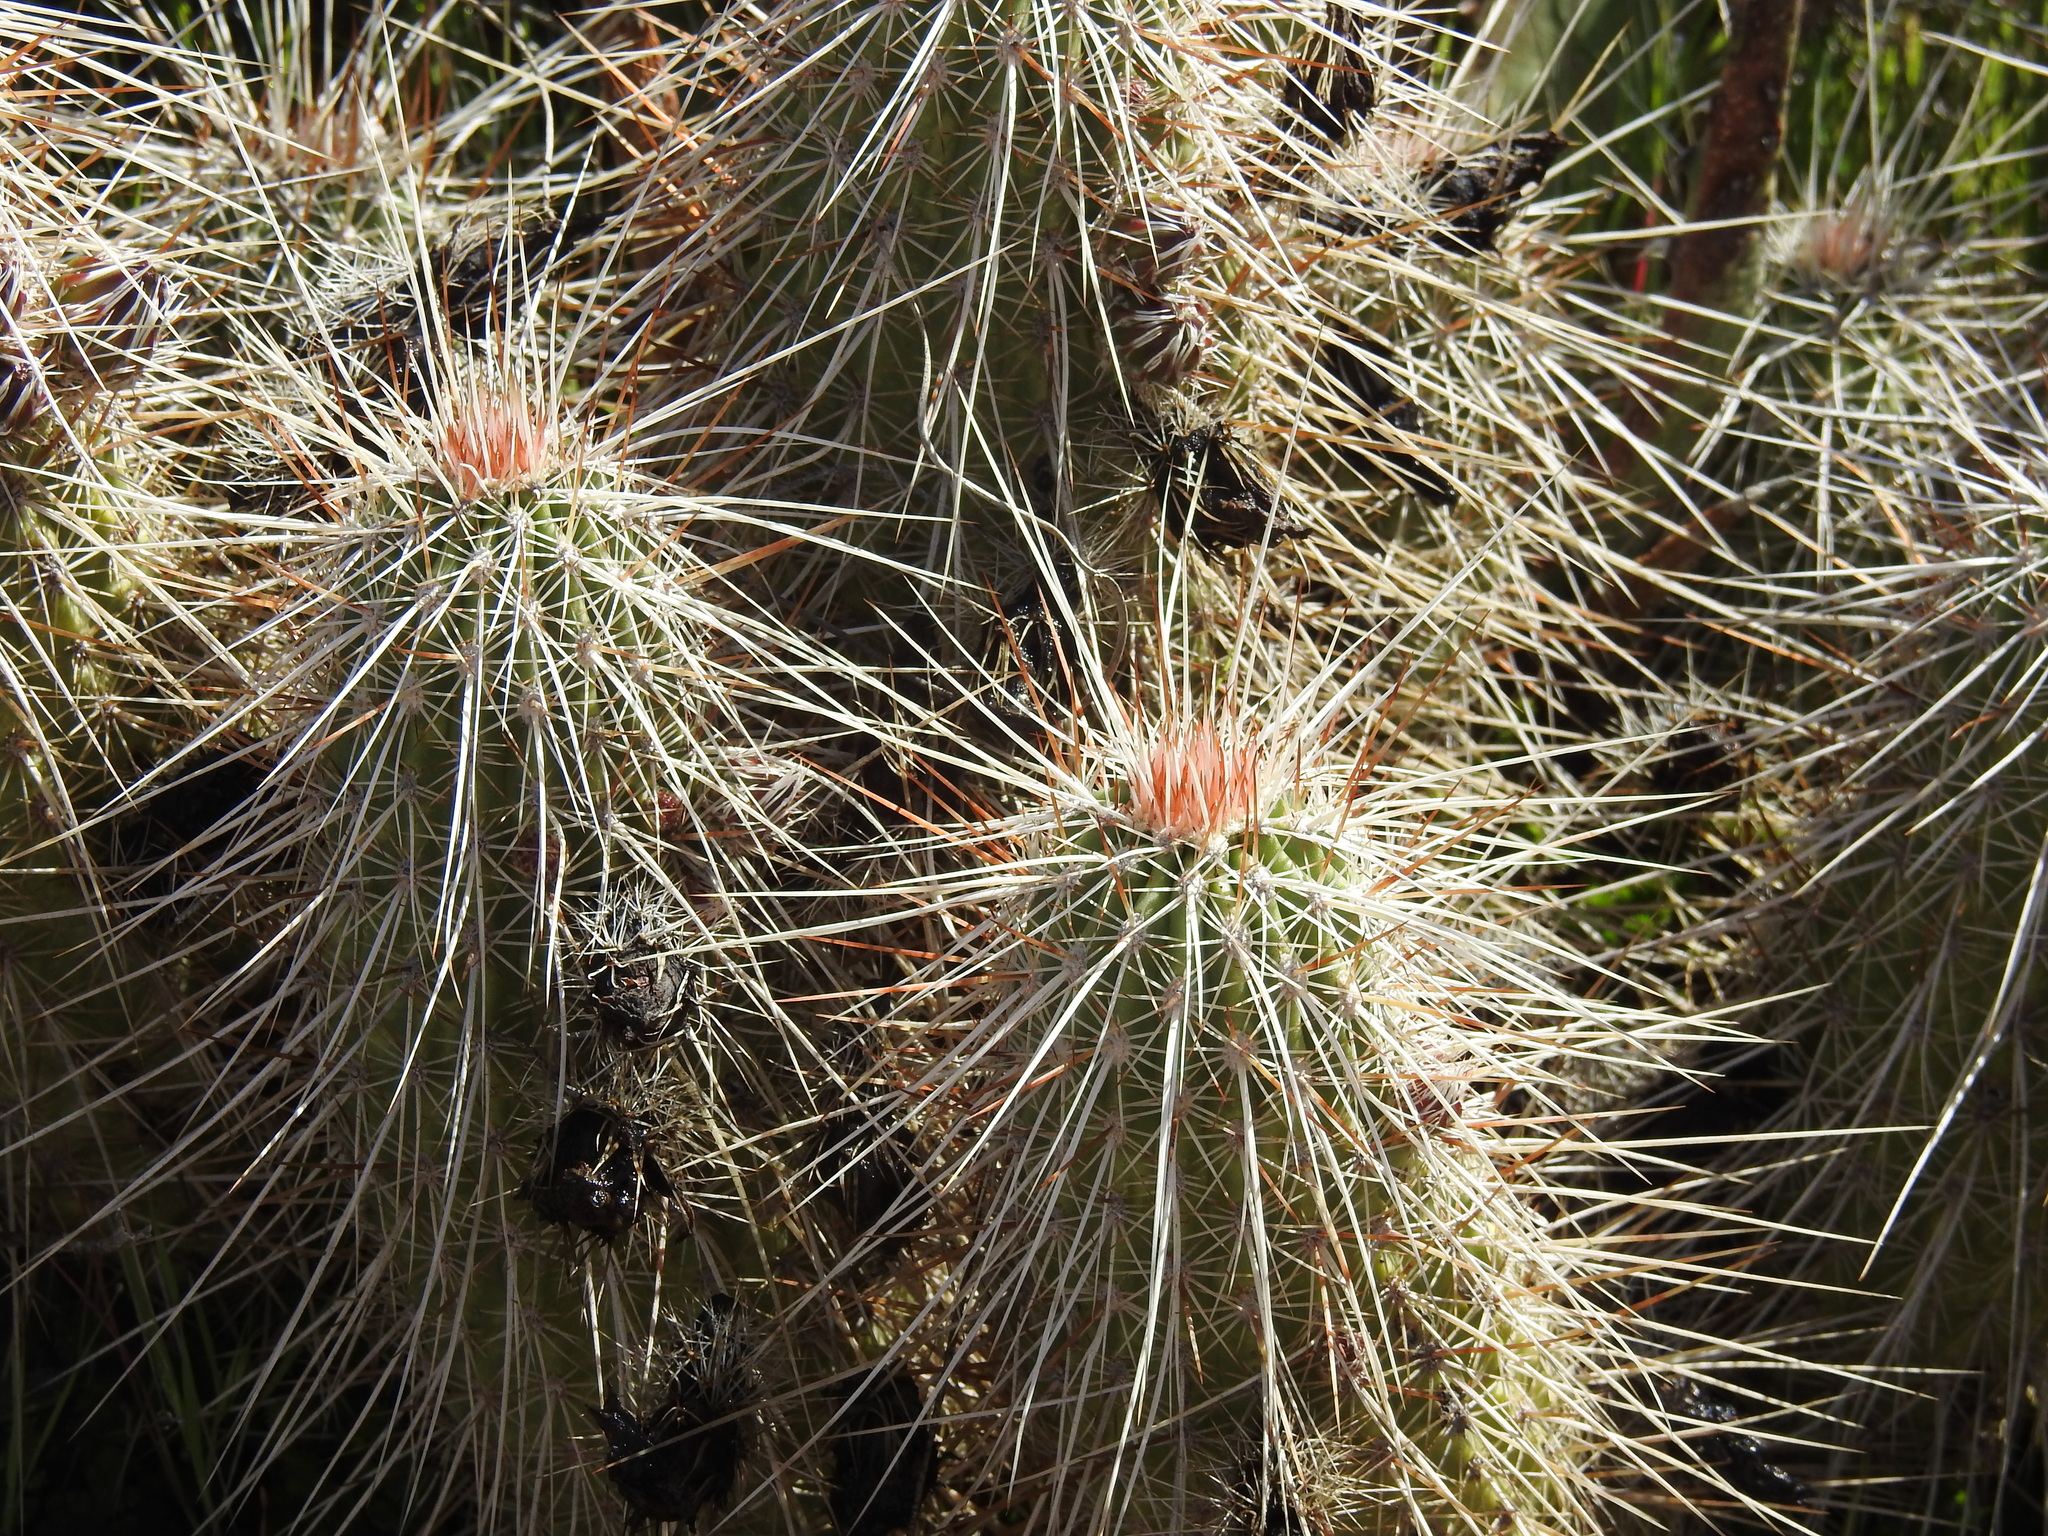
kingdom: Plantae
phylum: Tracheophyta
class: Magnoliopsida
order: Caryophyllales
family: Cactaceae
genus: Echinocereus
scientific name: Echinocereus bonkerae
